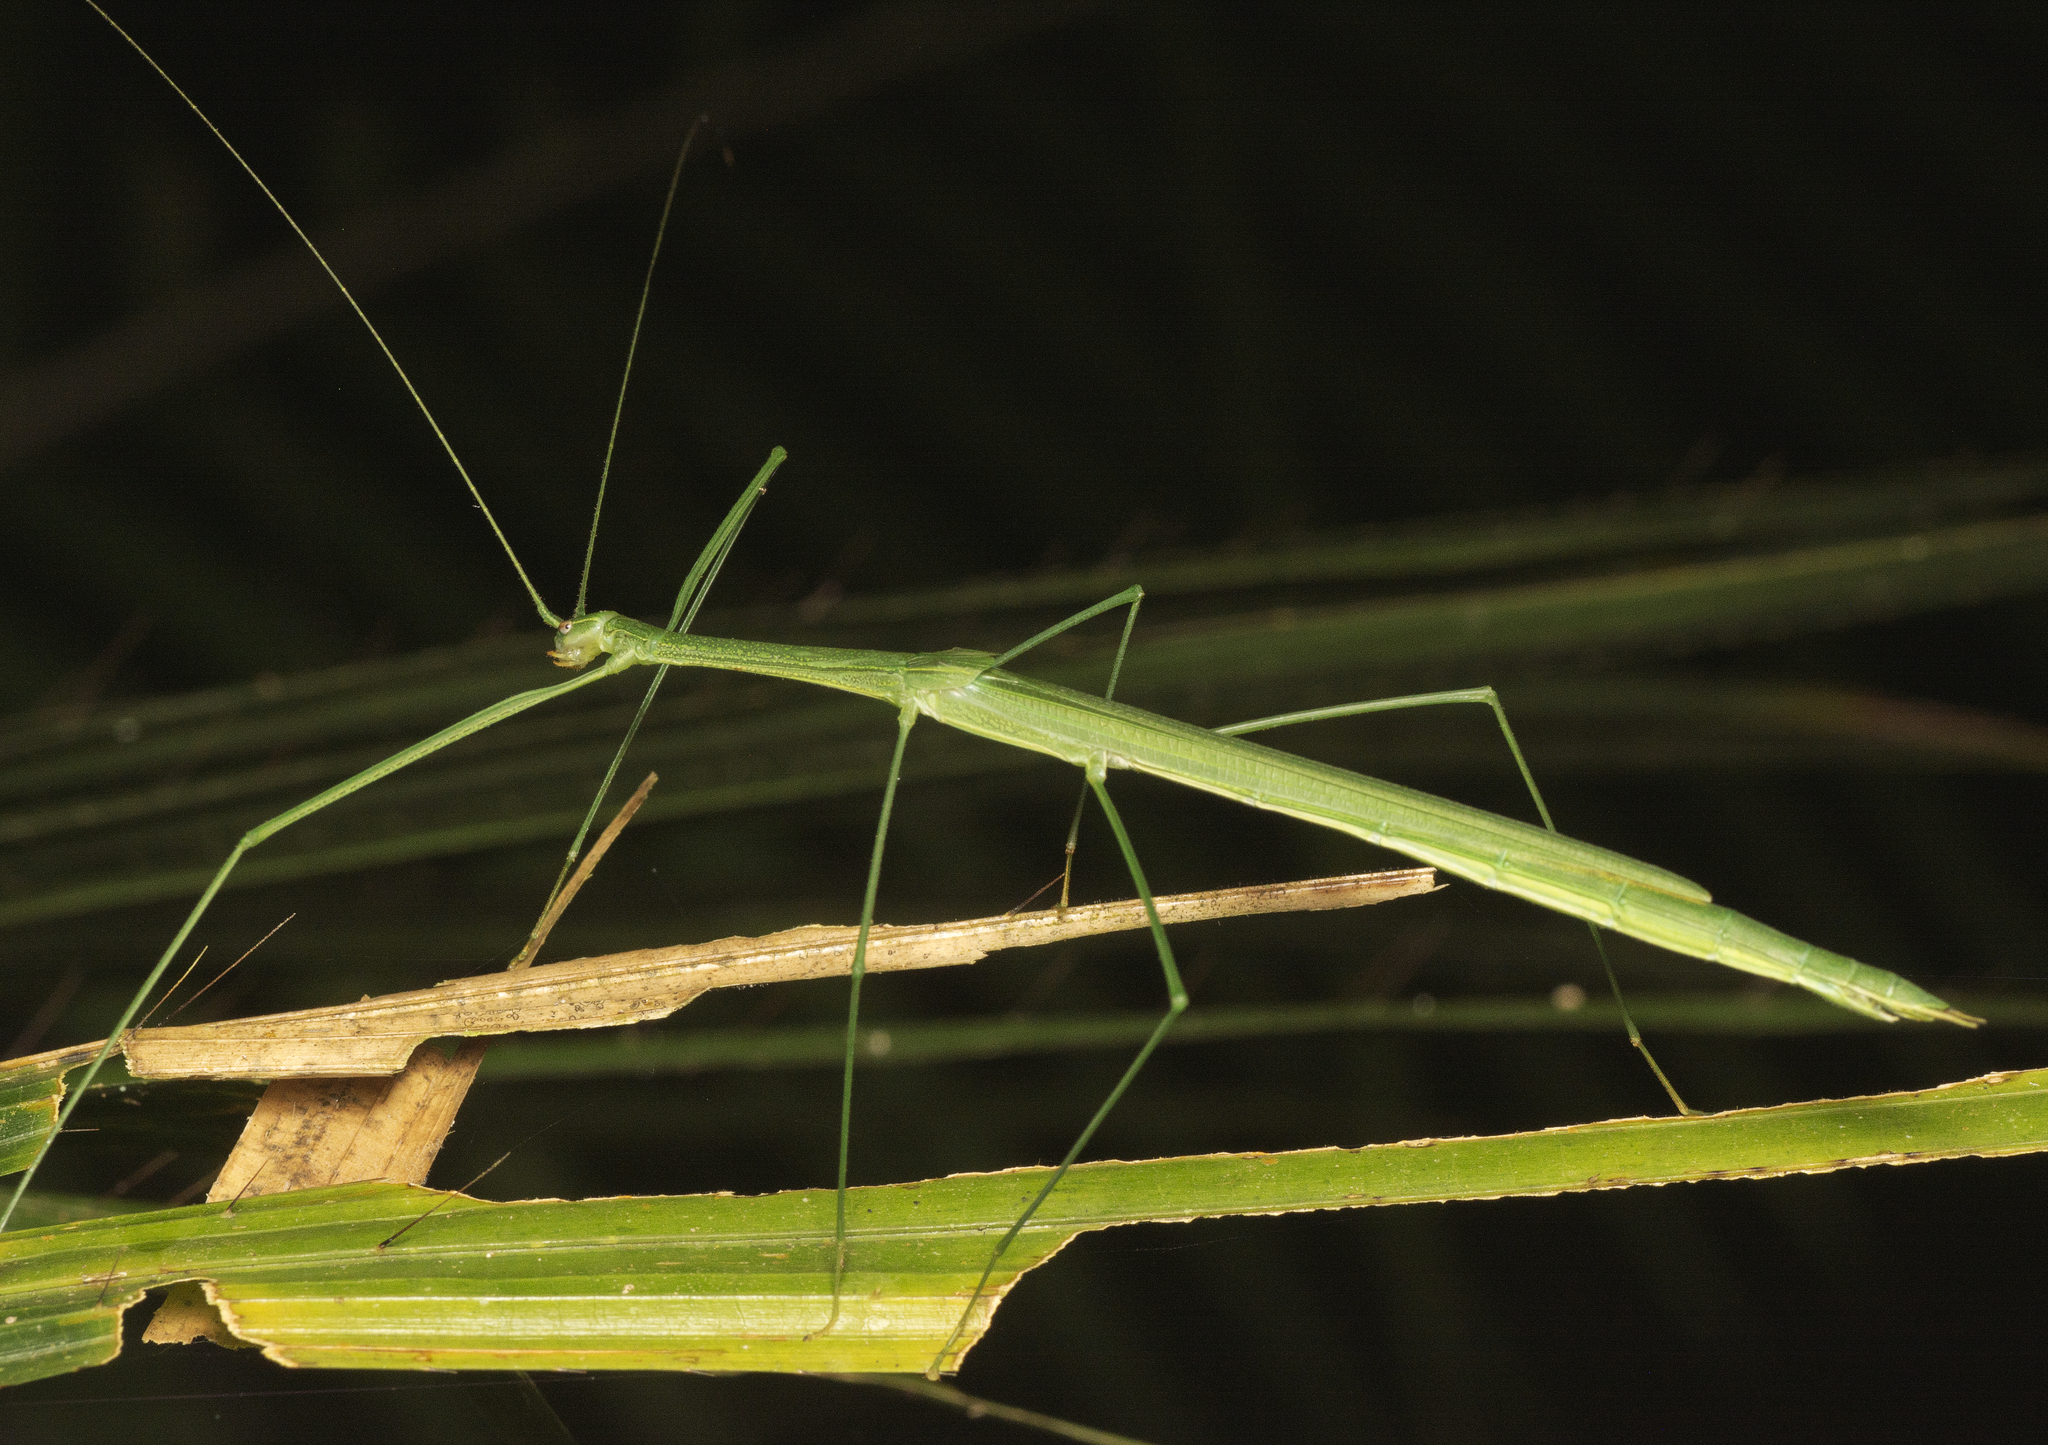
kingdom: Animalia
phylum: Arthropoda
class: Insecta
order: Phasmida
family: Lonchodidae
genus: Sipyloidea
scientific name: Sipyloidea rentzi
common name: Rentz's sipyloidea stick-insect
